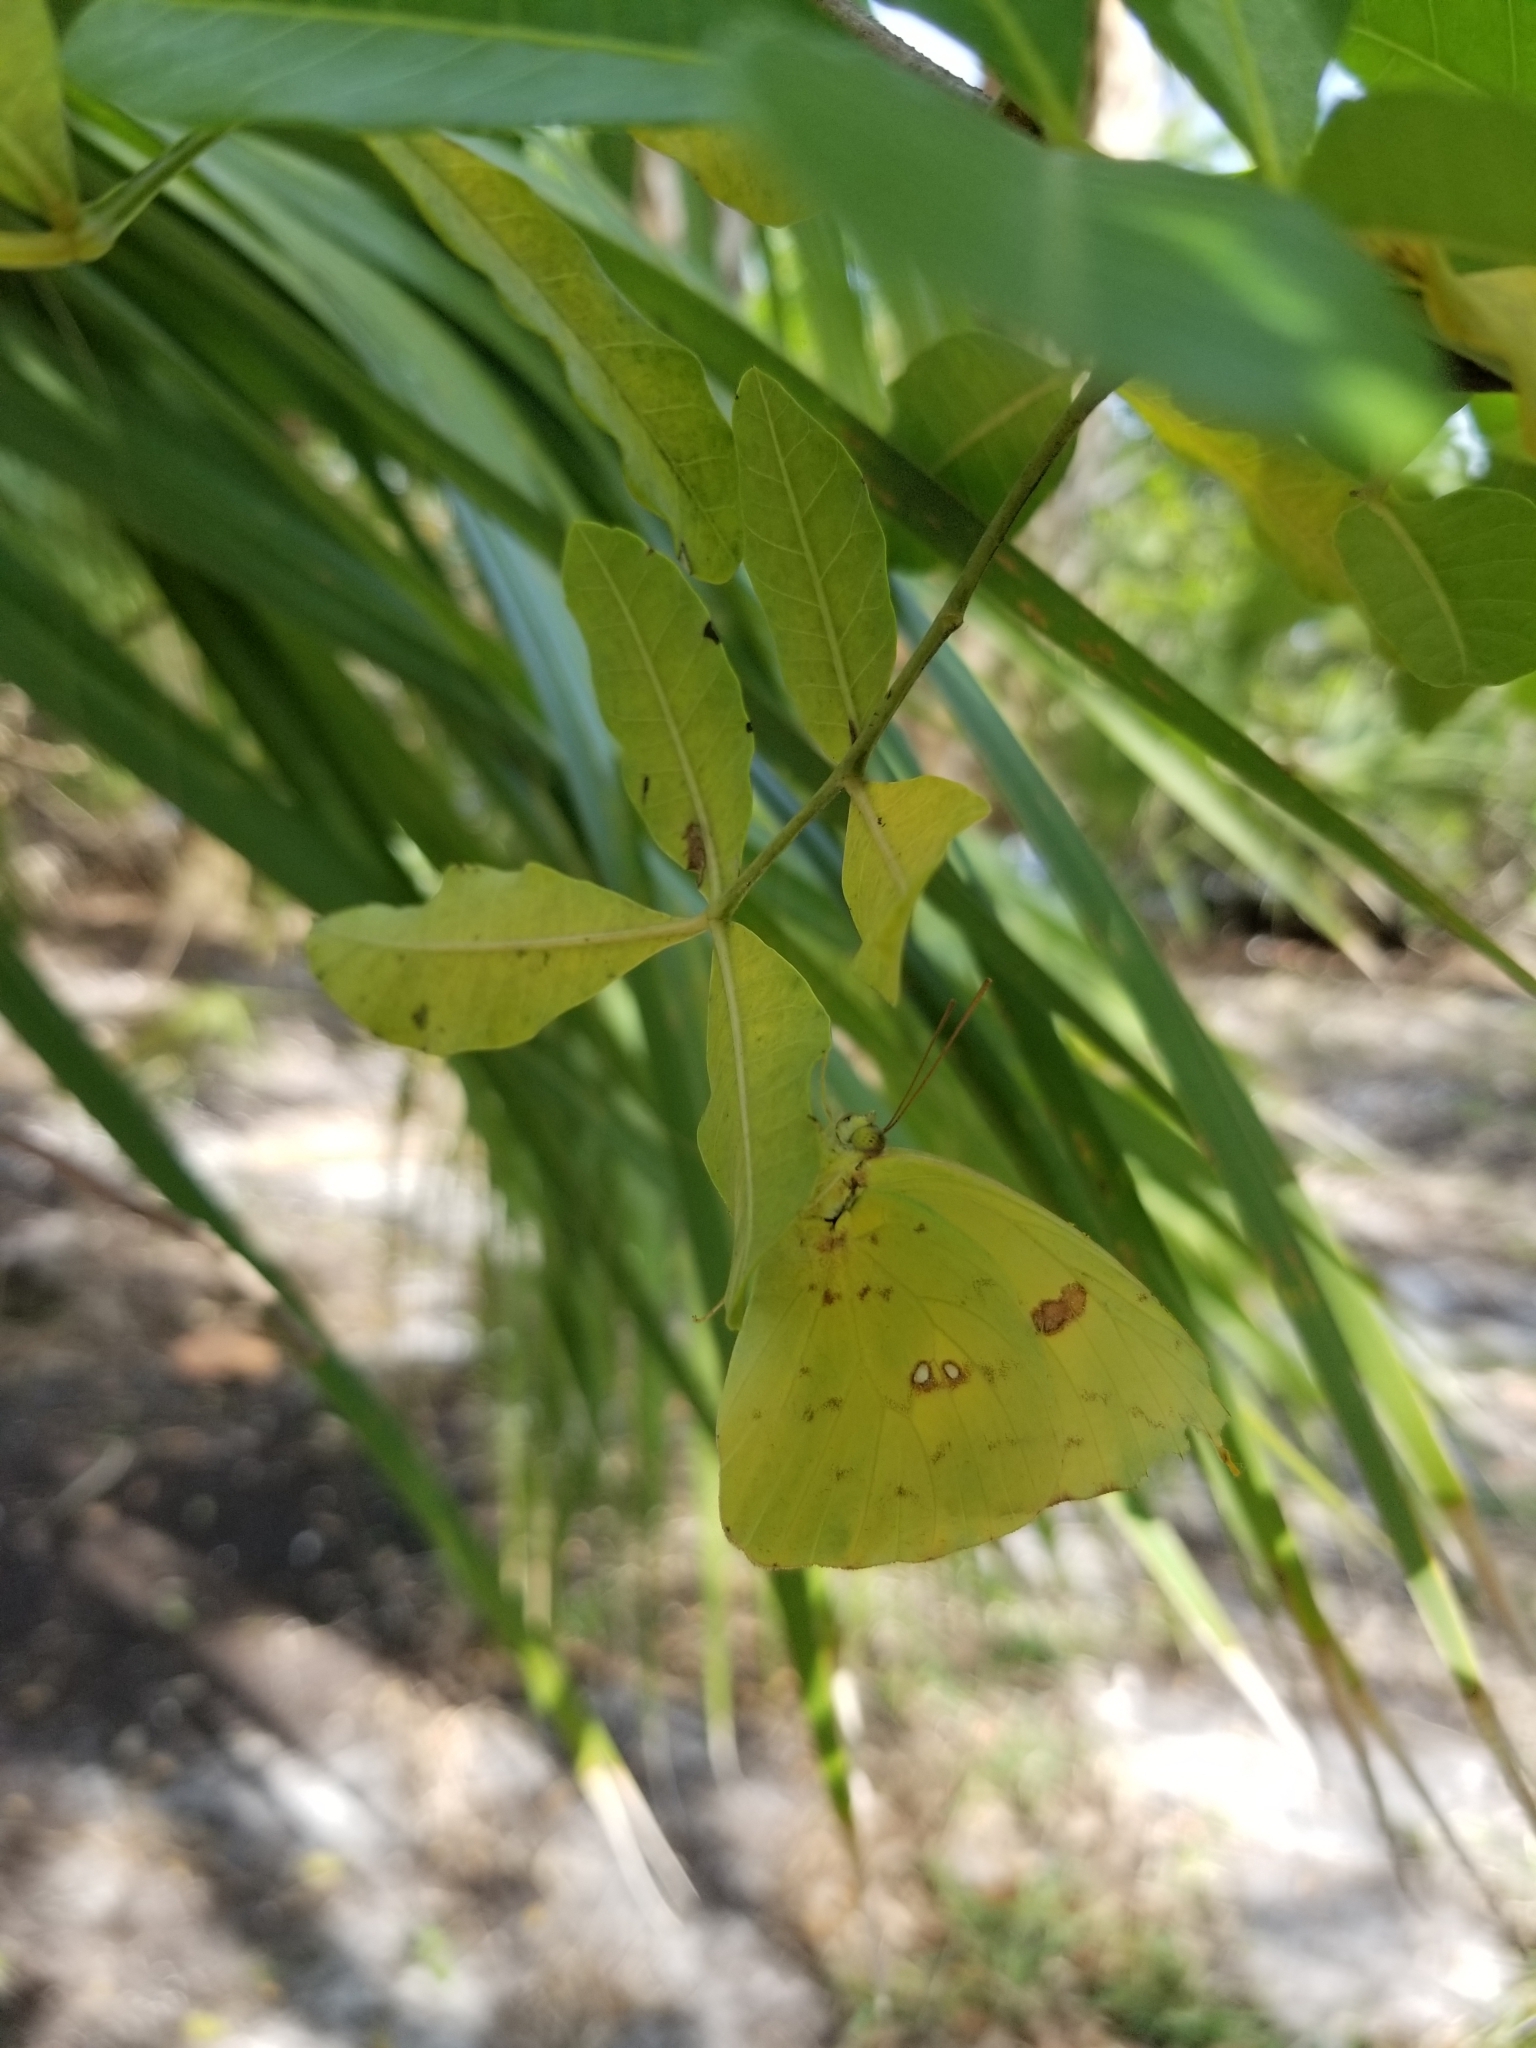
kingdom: Animalia
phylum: Arthropoda
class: Insecta
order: Lepidoptera
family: Pieridae
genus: Phoebis
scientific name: Phoebis sennae
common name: Cloudless sulphur
